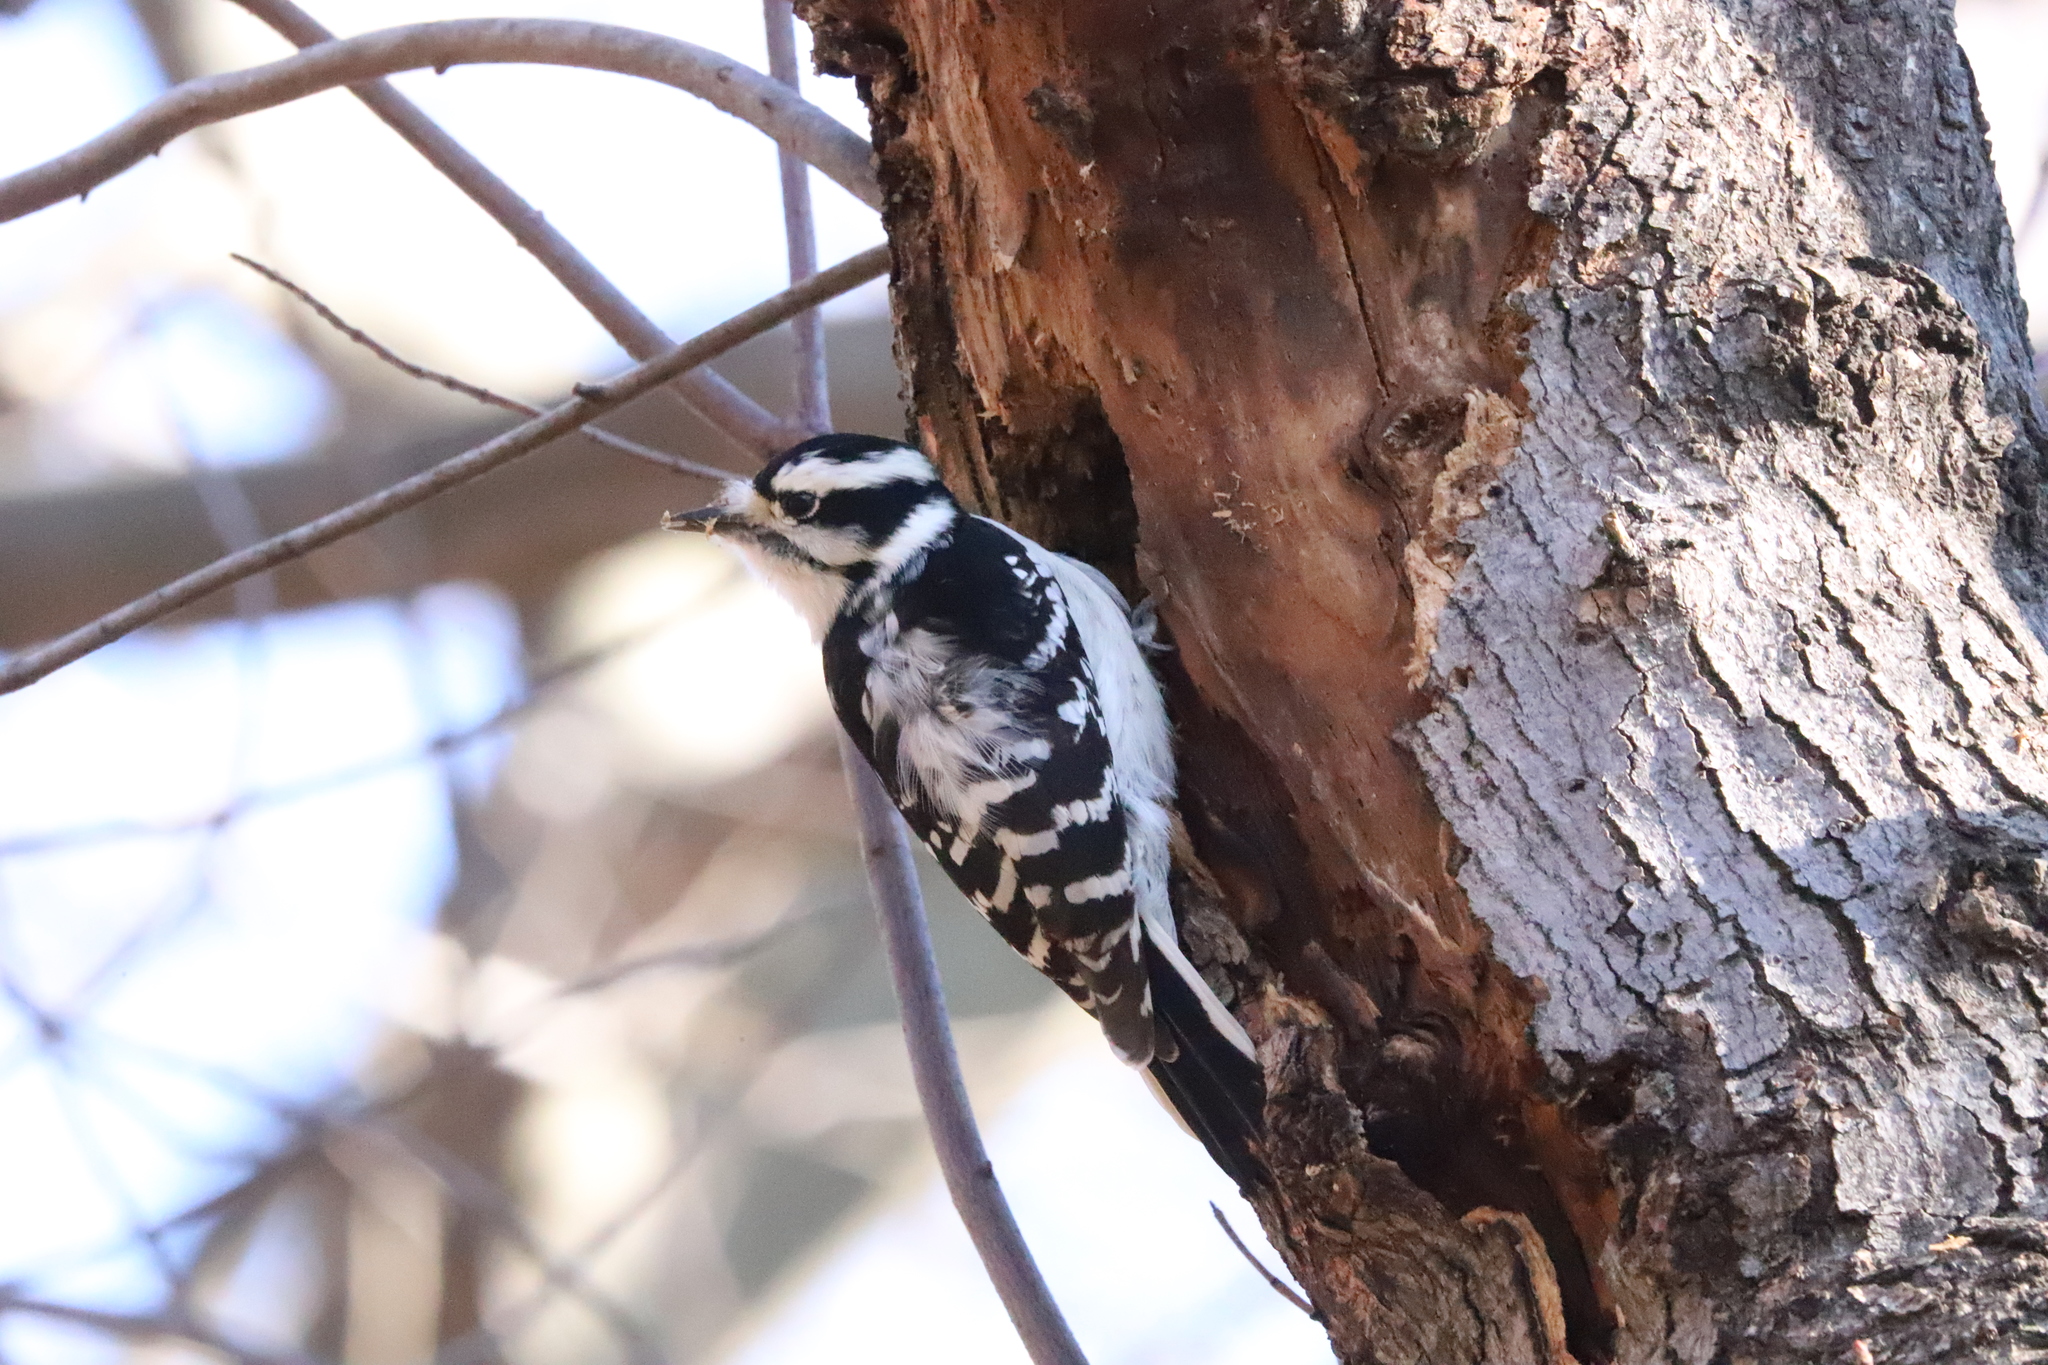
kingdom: Animalia
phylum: Chordata
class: Aves
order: Piciformes
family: Picidae
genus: Dryobates
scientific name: Dryobates pubescens
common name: Downy woodpecker
